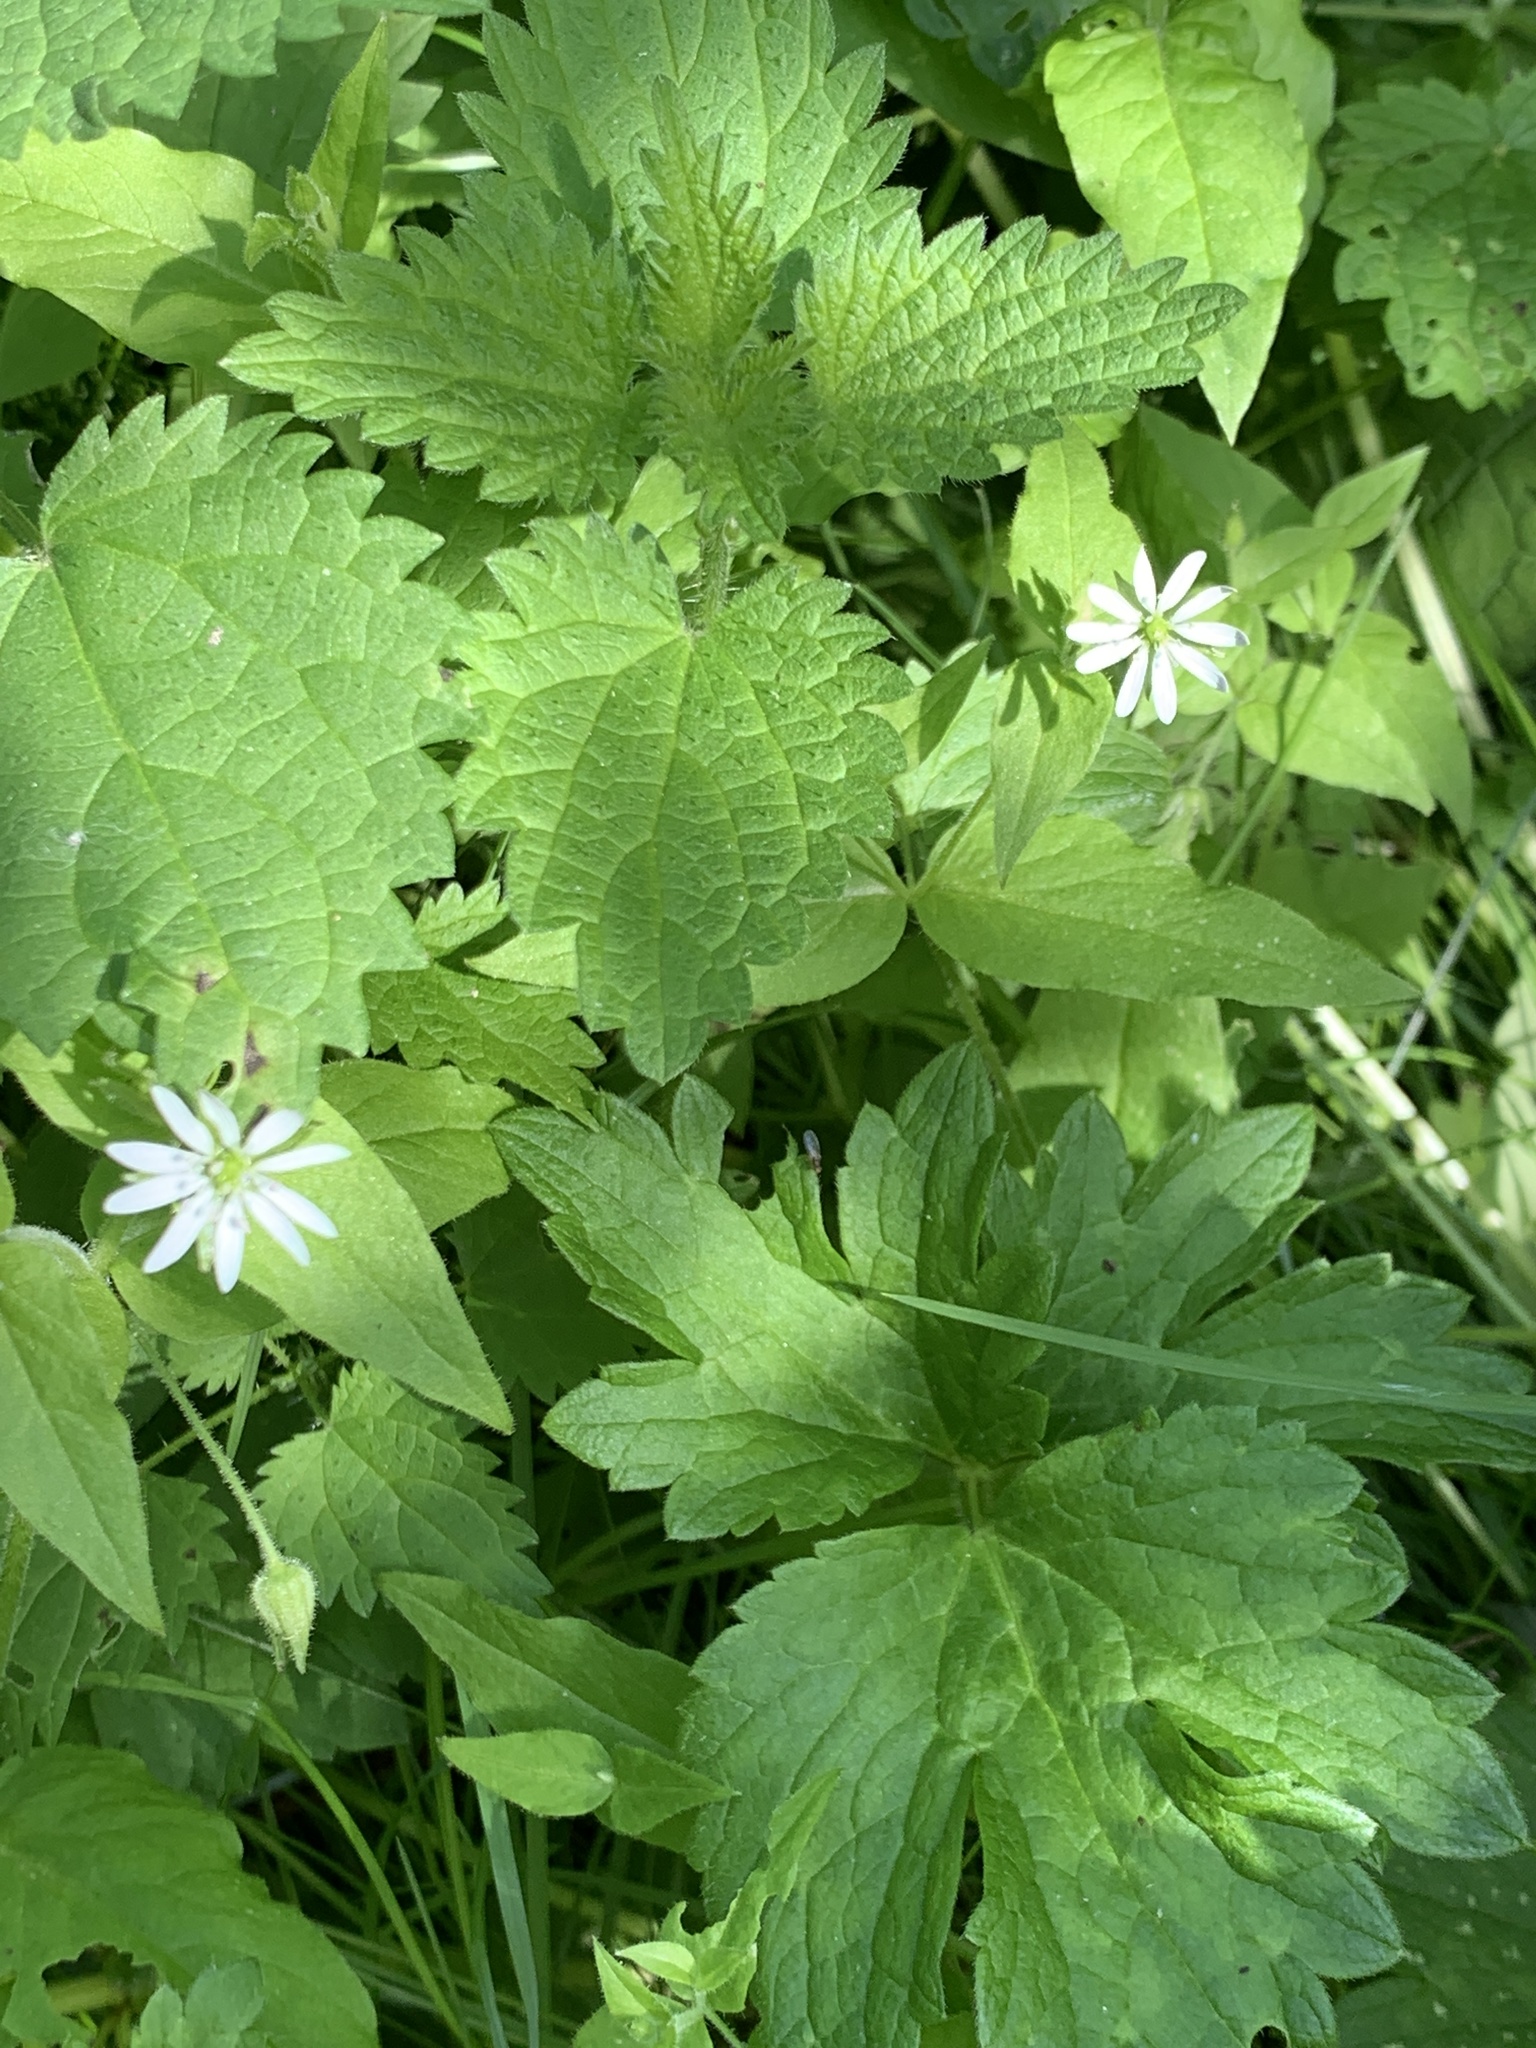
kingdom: Plantae
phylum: Tracheophyta
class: Magnoliopsida
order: Caryophyllales
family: Caryophyllaceae
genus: Stellaria
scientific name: Stellaria aquatica
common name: Water chickweed
